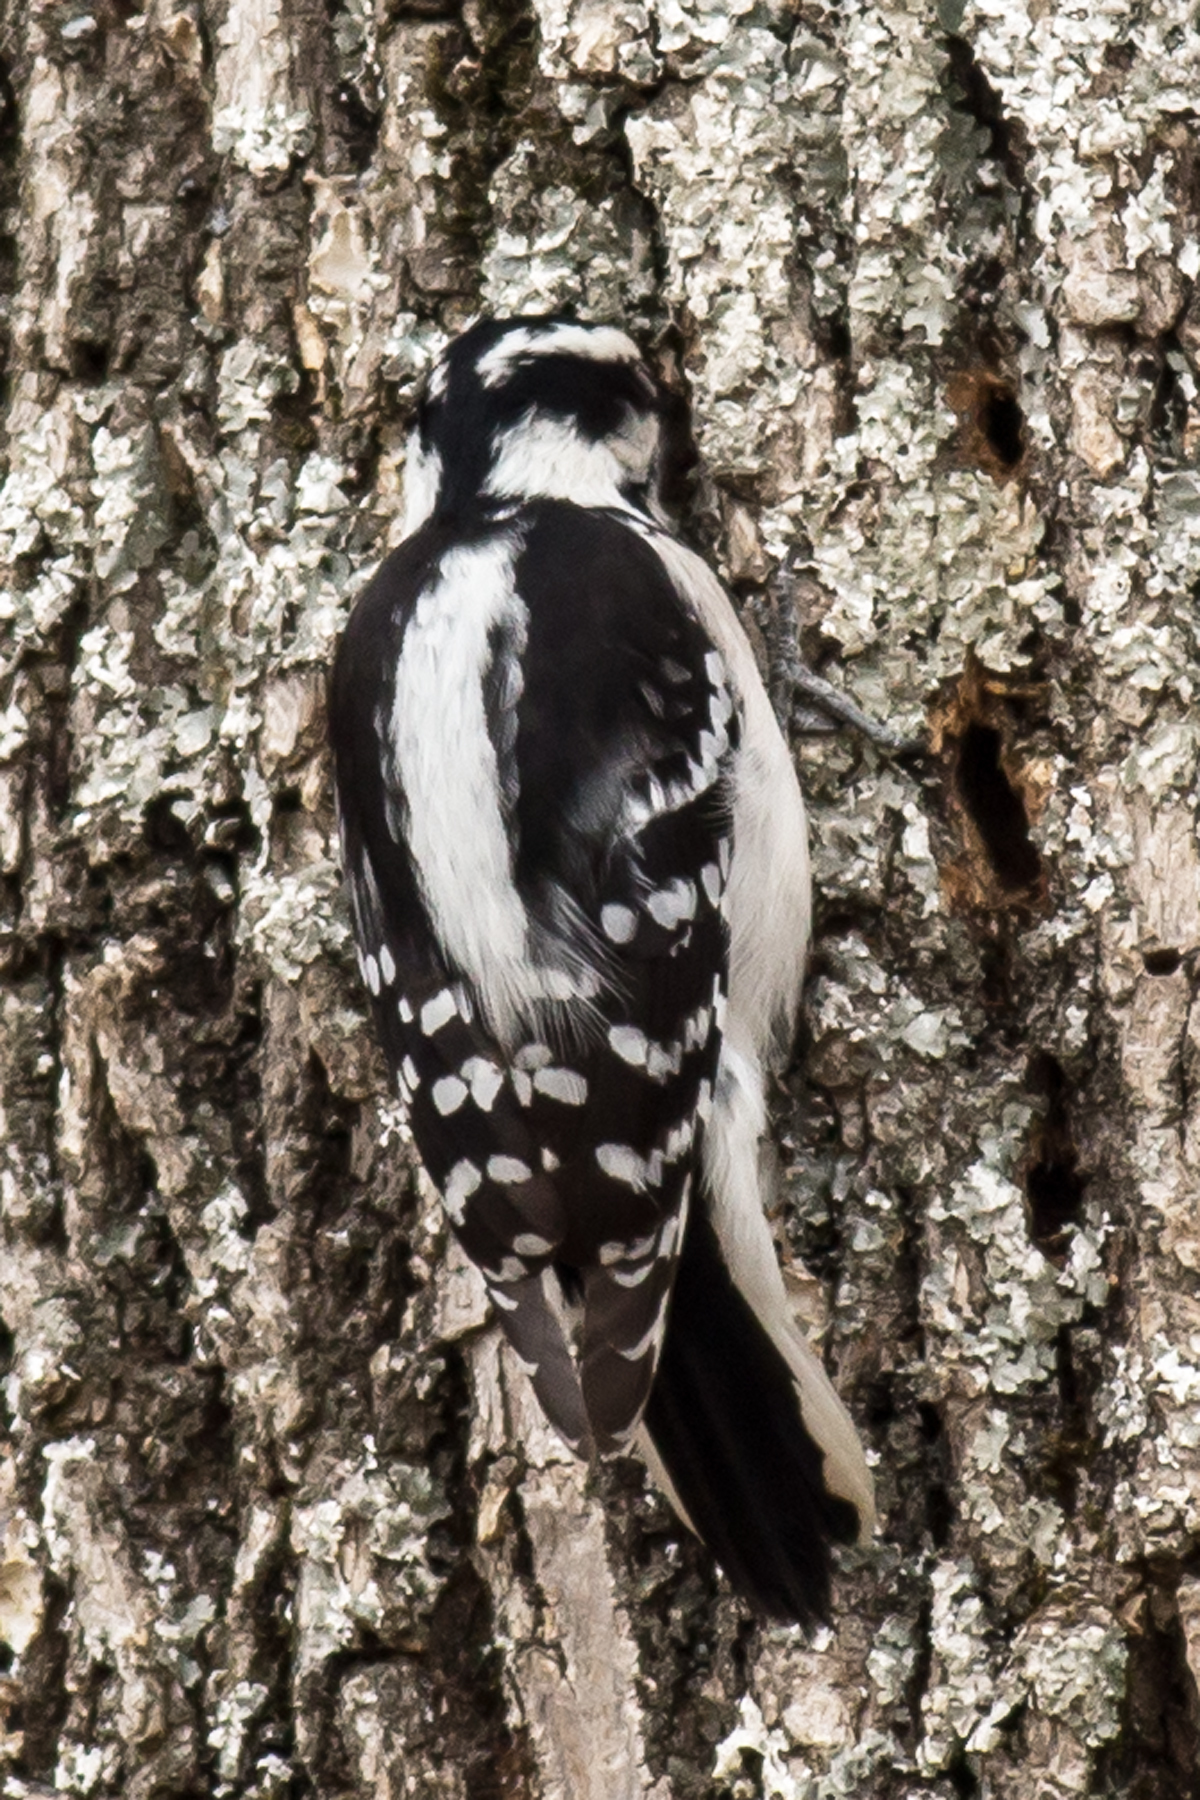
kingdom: Animalia
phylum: Chordata
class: Aves
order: Piciformes
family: Picidae
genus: Dryobates
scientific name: Dryobates pubescens
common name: Downy woodpecker
